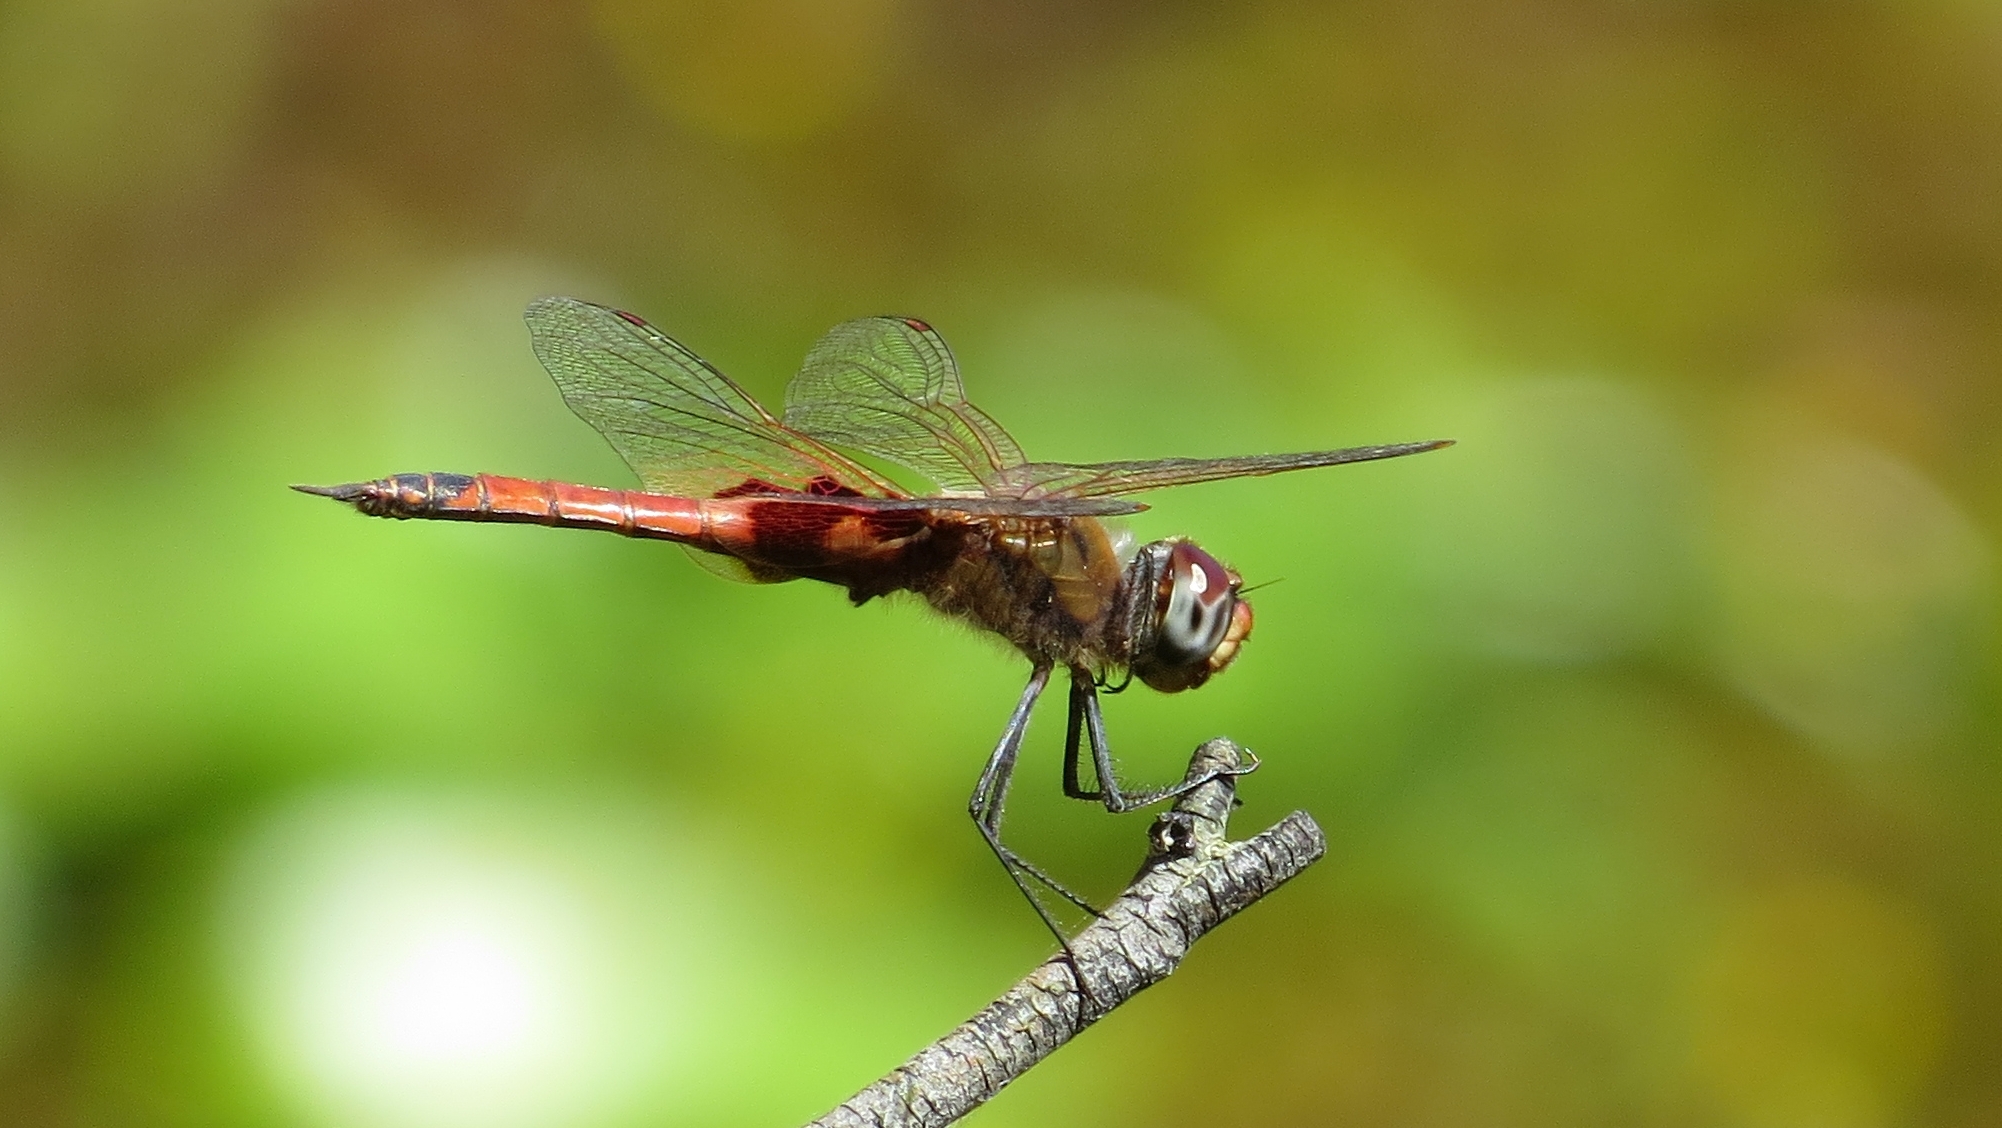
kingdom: Animalia
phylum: Arthropoda
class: Insecta
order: Odonata
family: Libellulidae
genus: Tramea
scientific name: Tramea loewii
